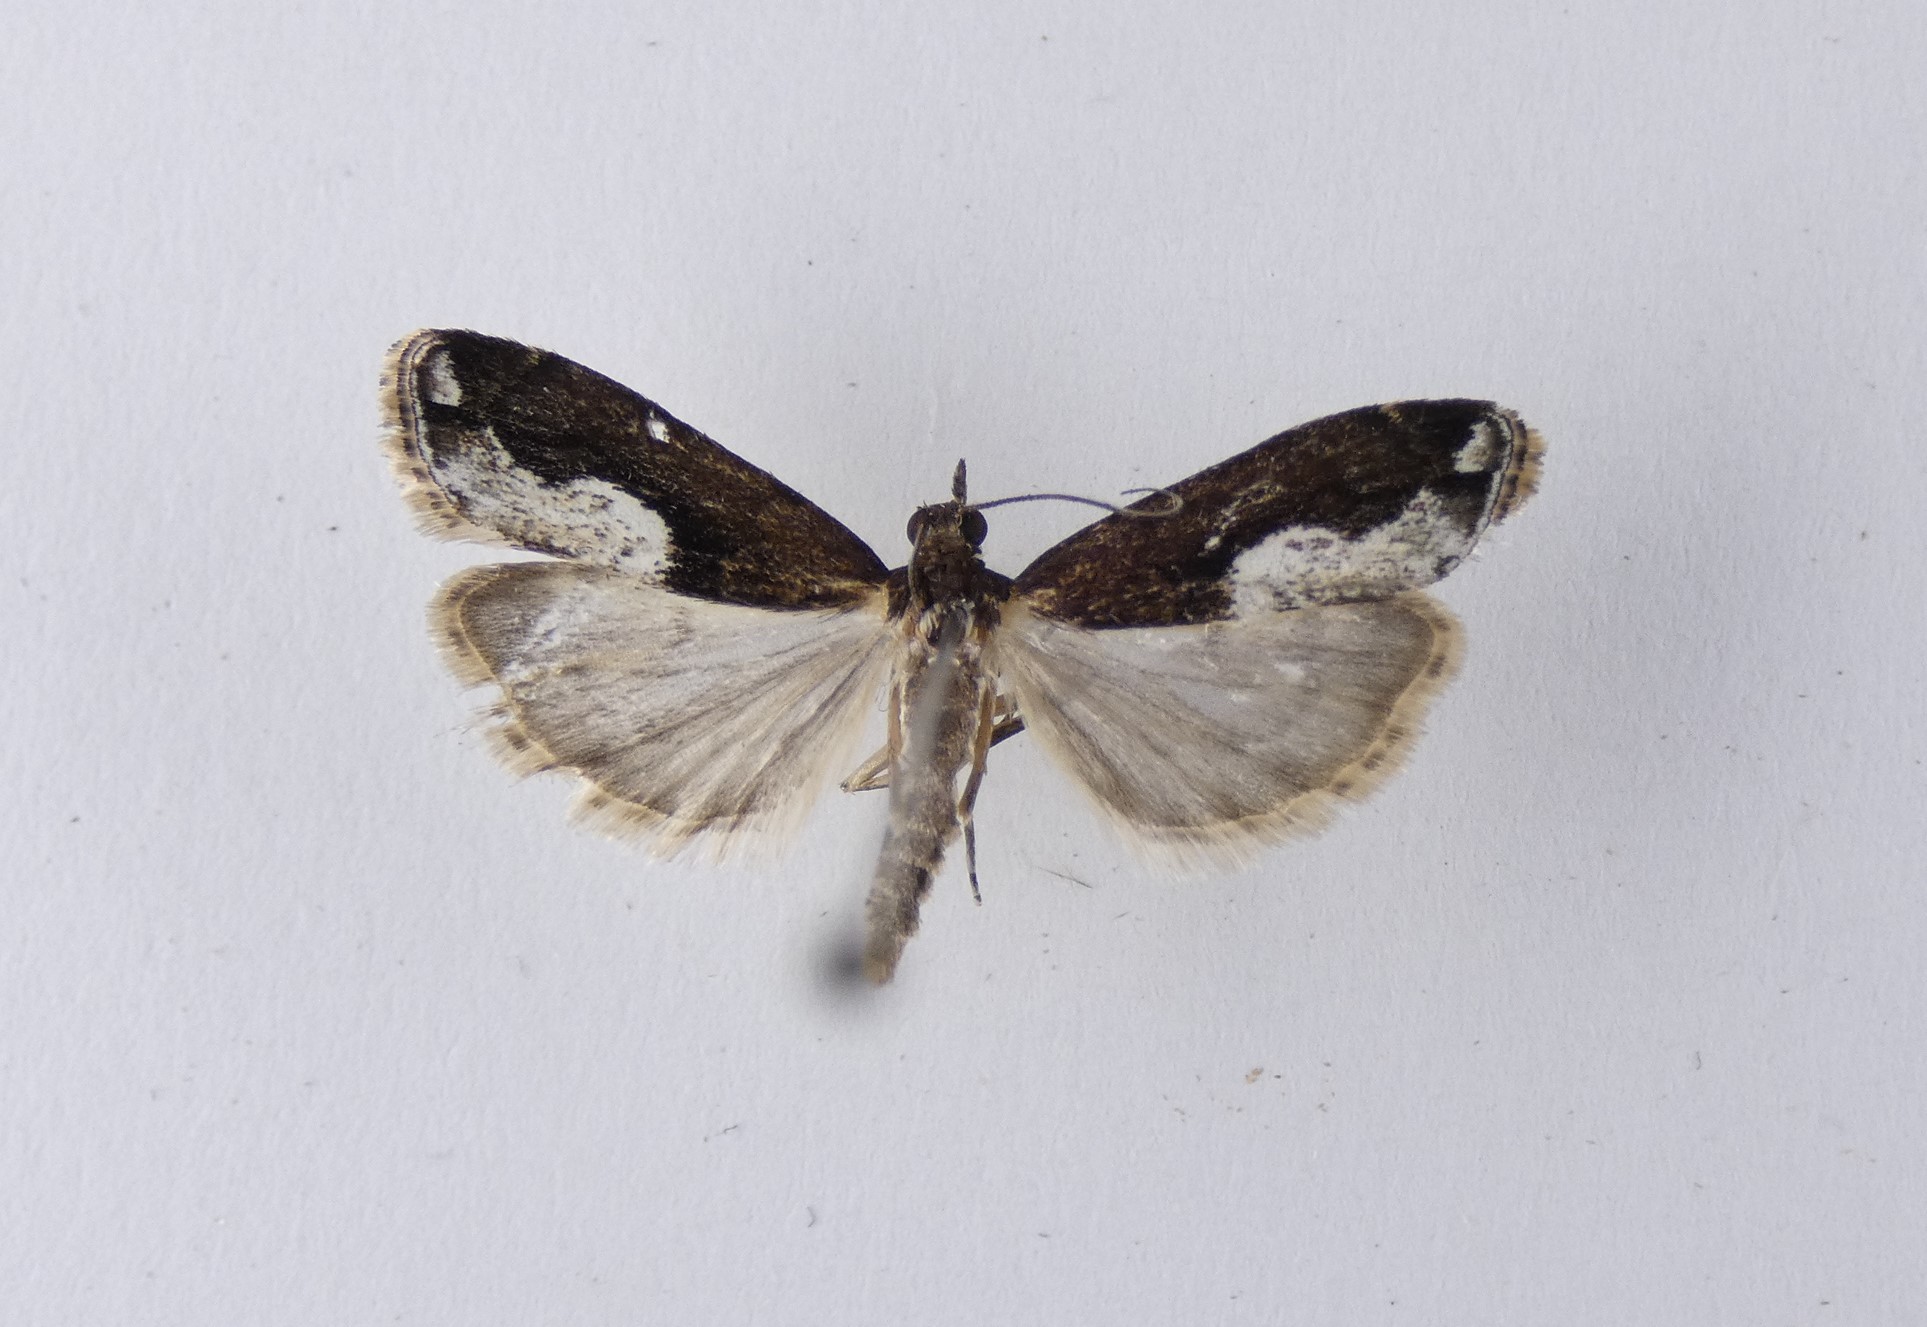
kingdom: Animalia
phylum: Arthropoda
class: Insecta
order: Lepidoptera
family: Crambidae
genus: Eudonia
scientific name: Eudonia hemiplaca
